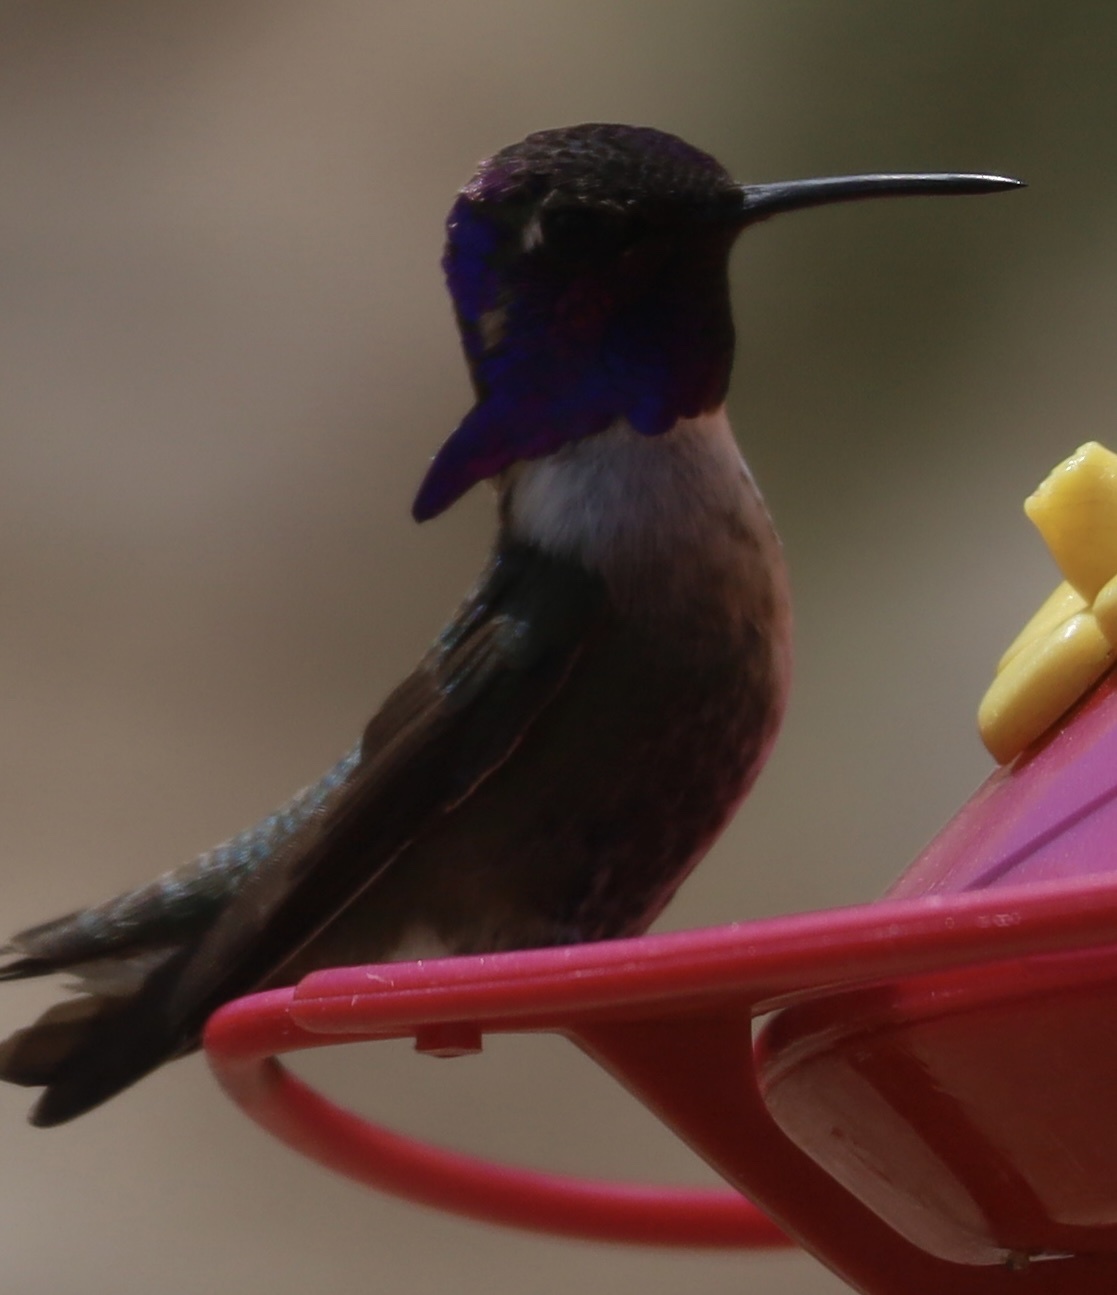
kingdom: Animalia
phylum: Chordata
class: Aves
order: Apodiformes
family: Trochilidae
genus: Calypte
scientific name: Calypte costae
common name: Costa's hummingbird
